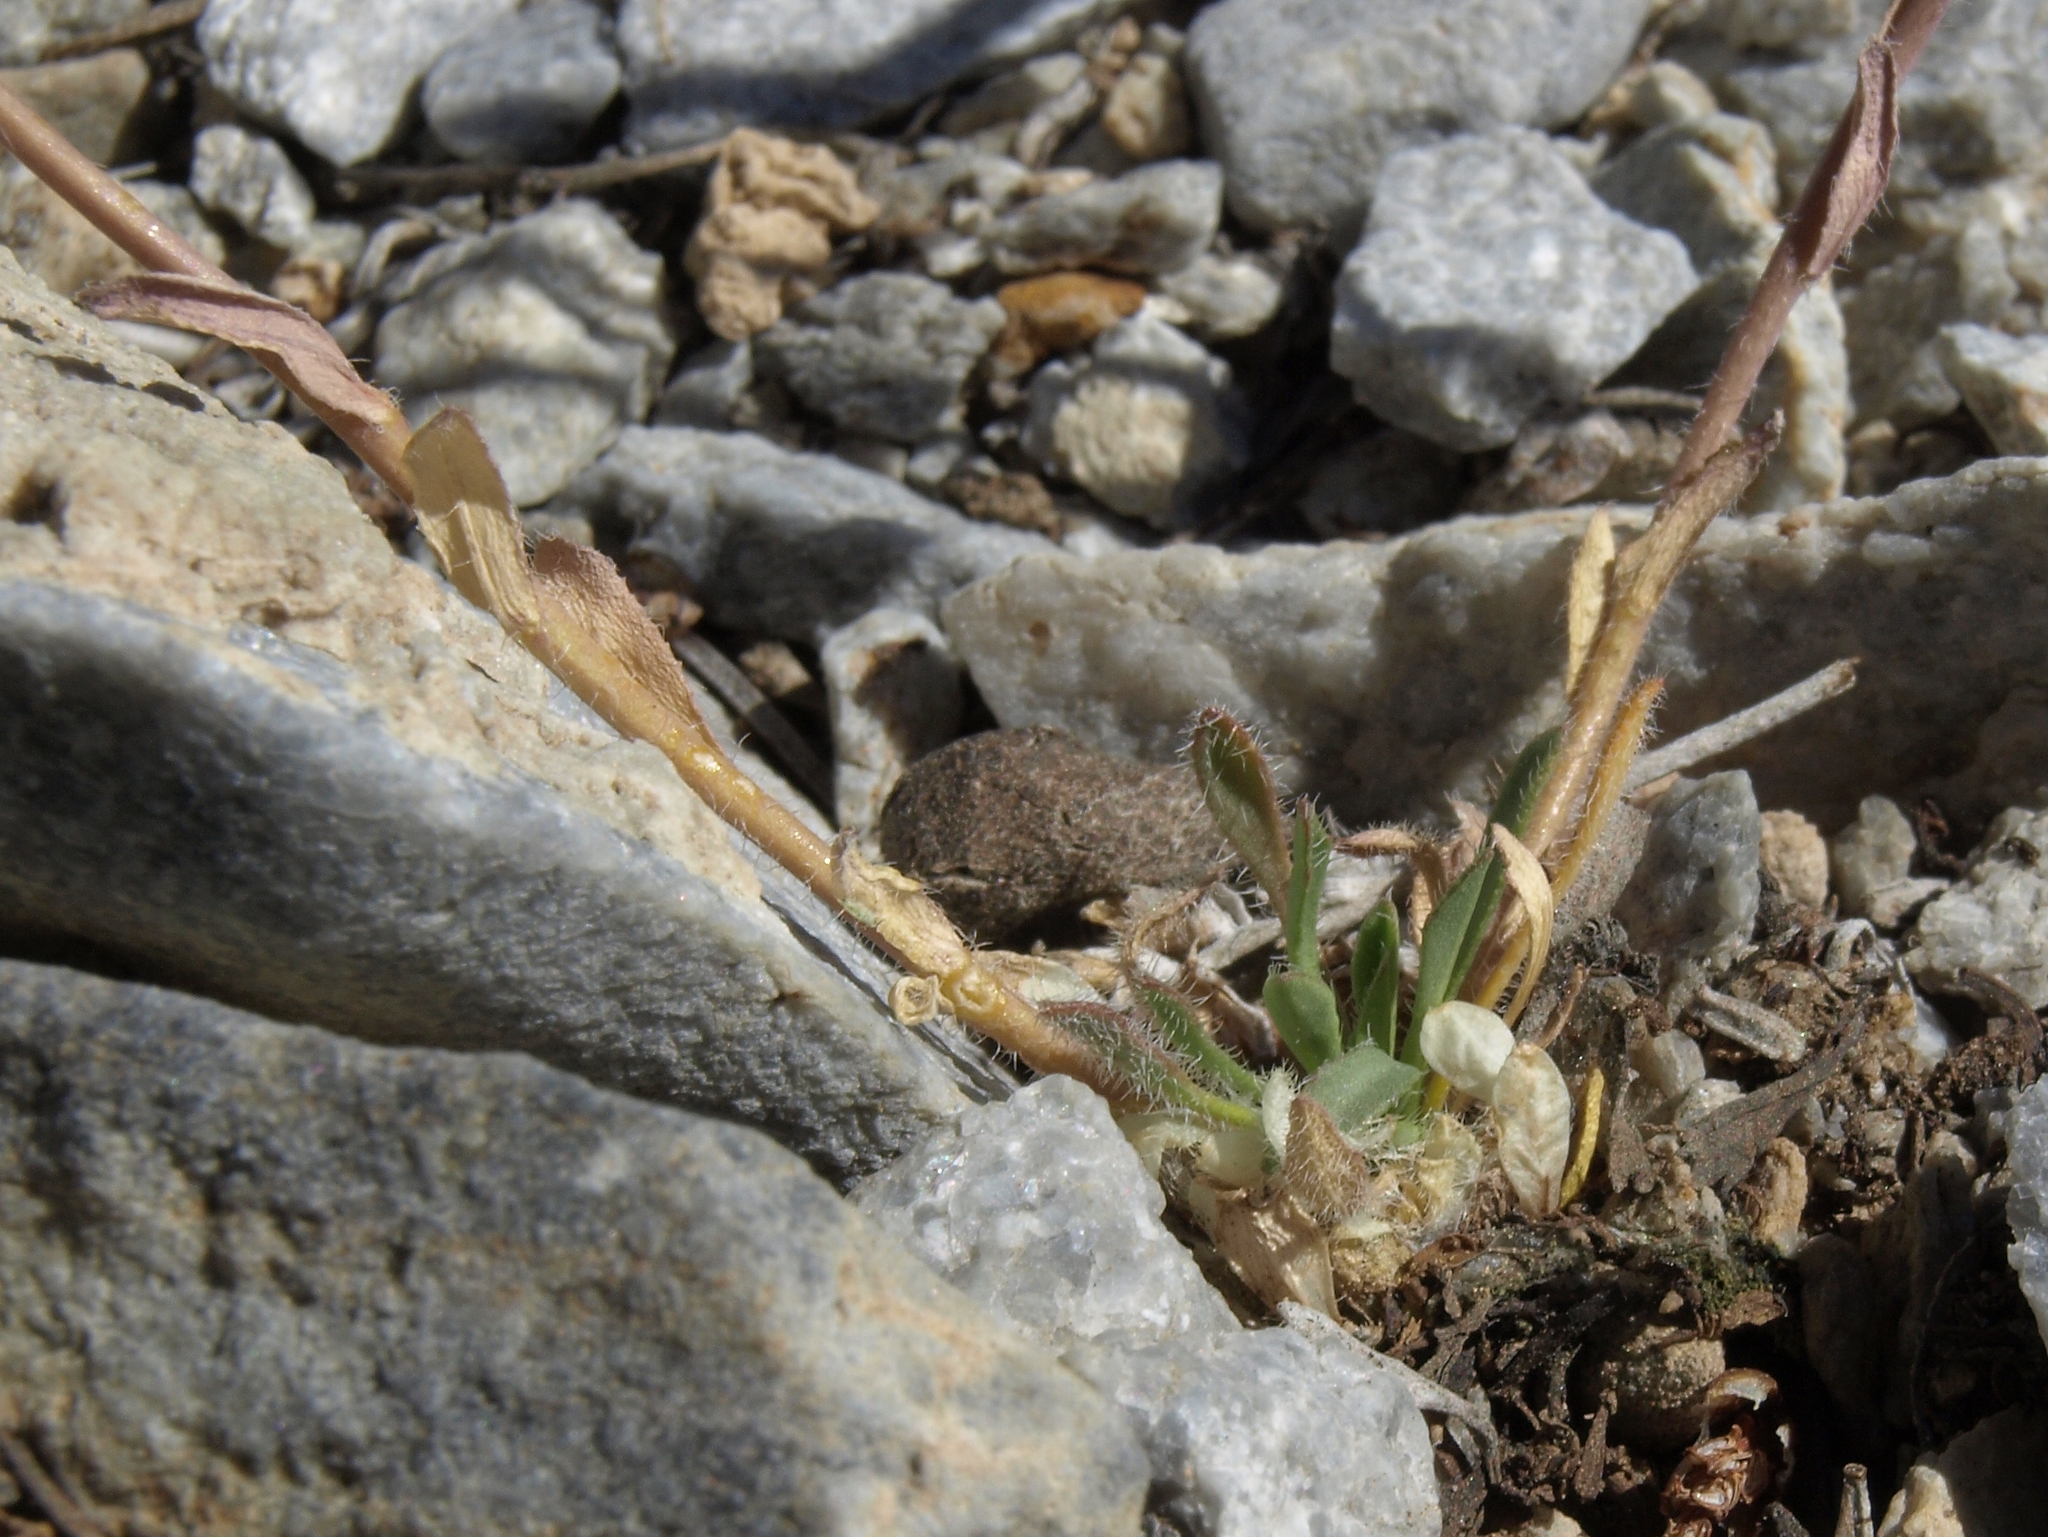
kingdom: Plantae
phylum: Tracheophyta
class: Magnoliopsida
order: Brassicales
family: Brassicaceae
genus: Boechera
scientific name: Boechera pendulina
